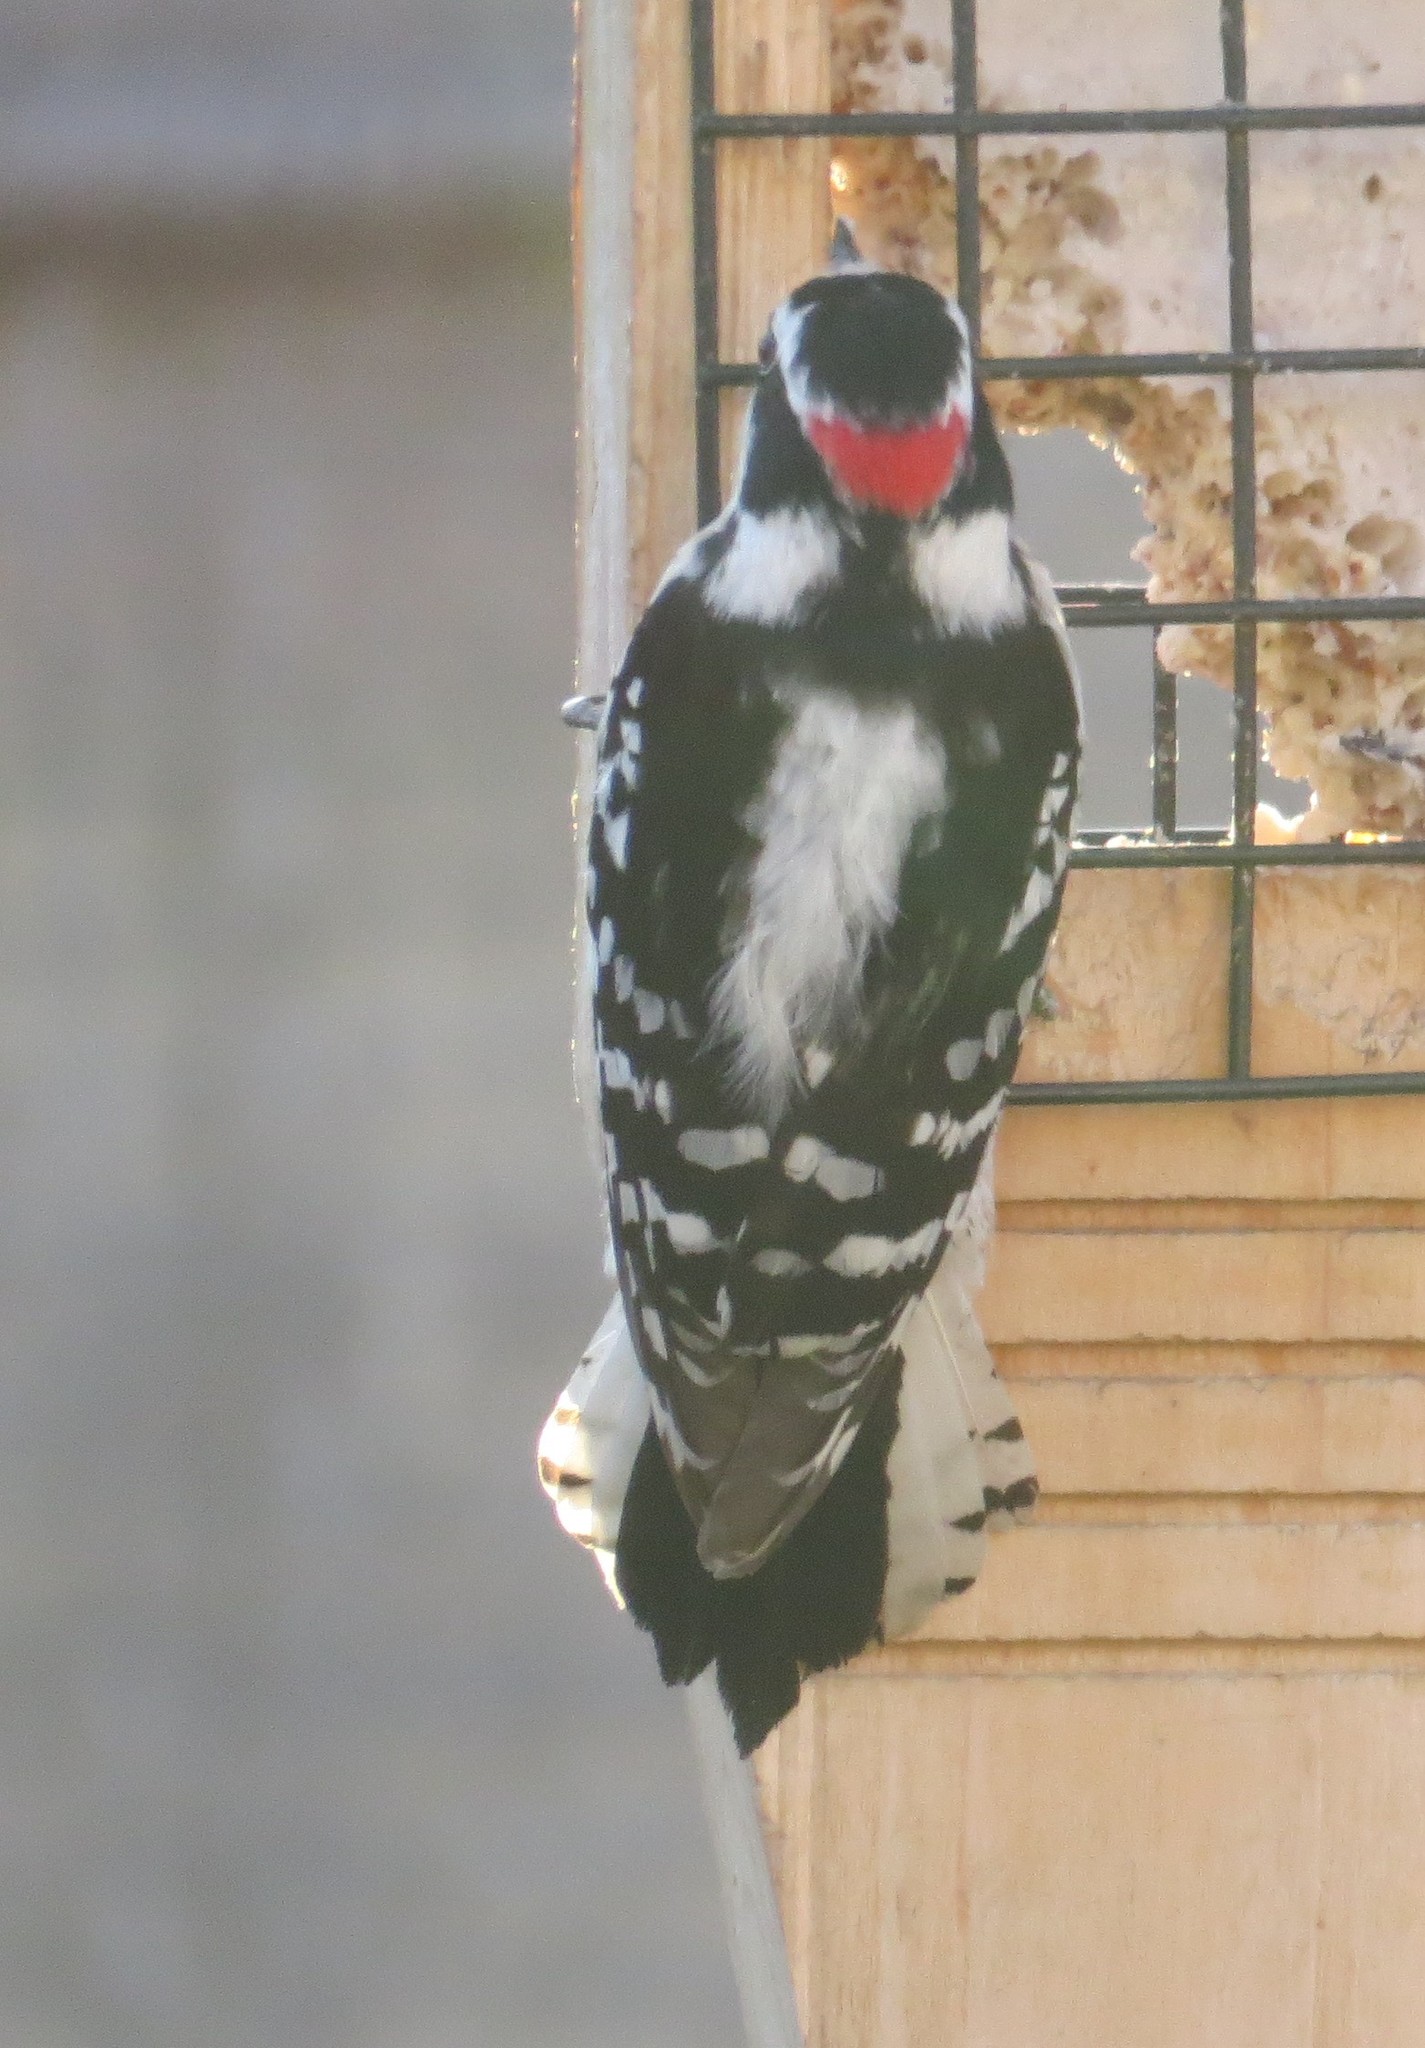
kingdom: Animalia
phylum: Chordata
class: Aves
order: Piciformes
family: Picidae
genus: Dryobates
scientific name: Dryobates pubescens
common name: Downy woodpecker
